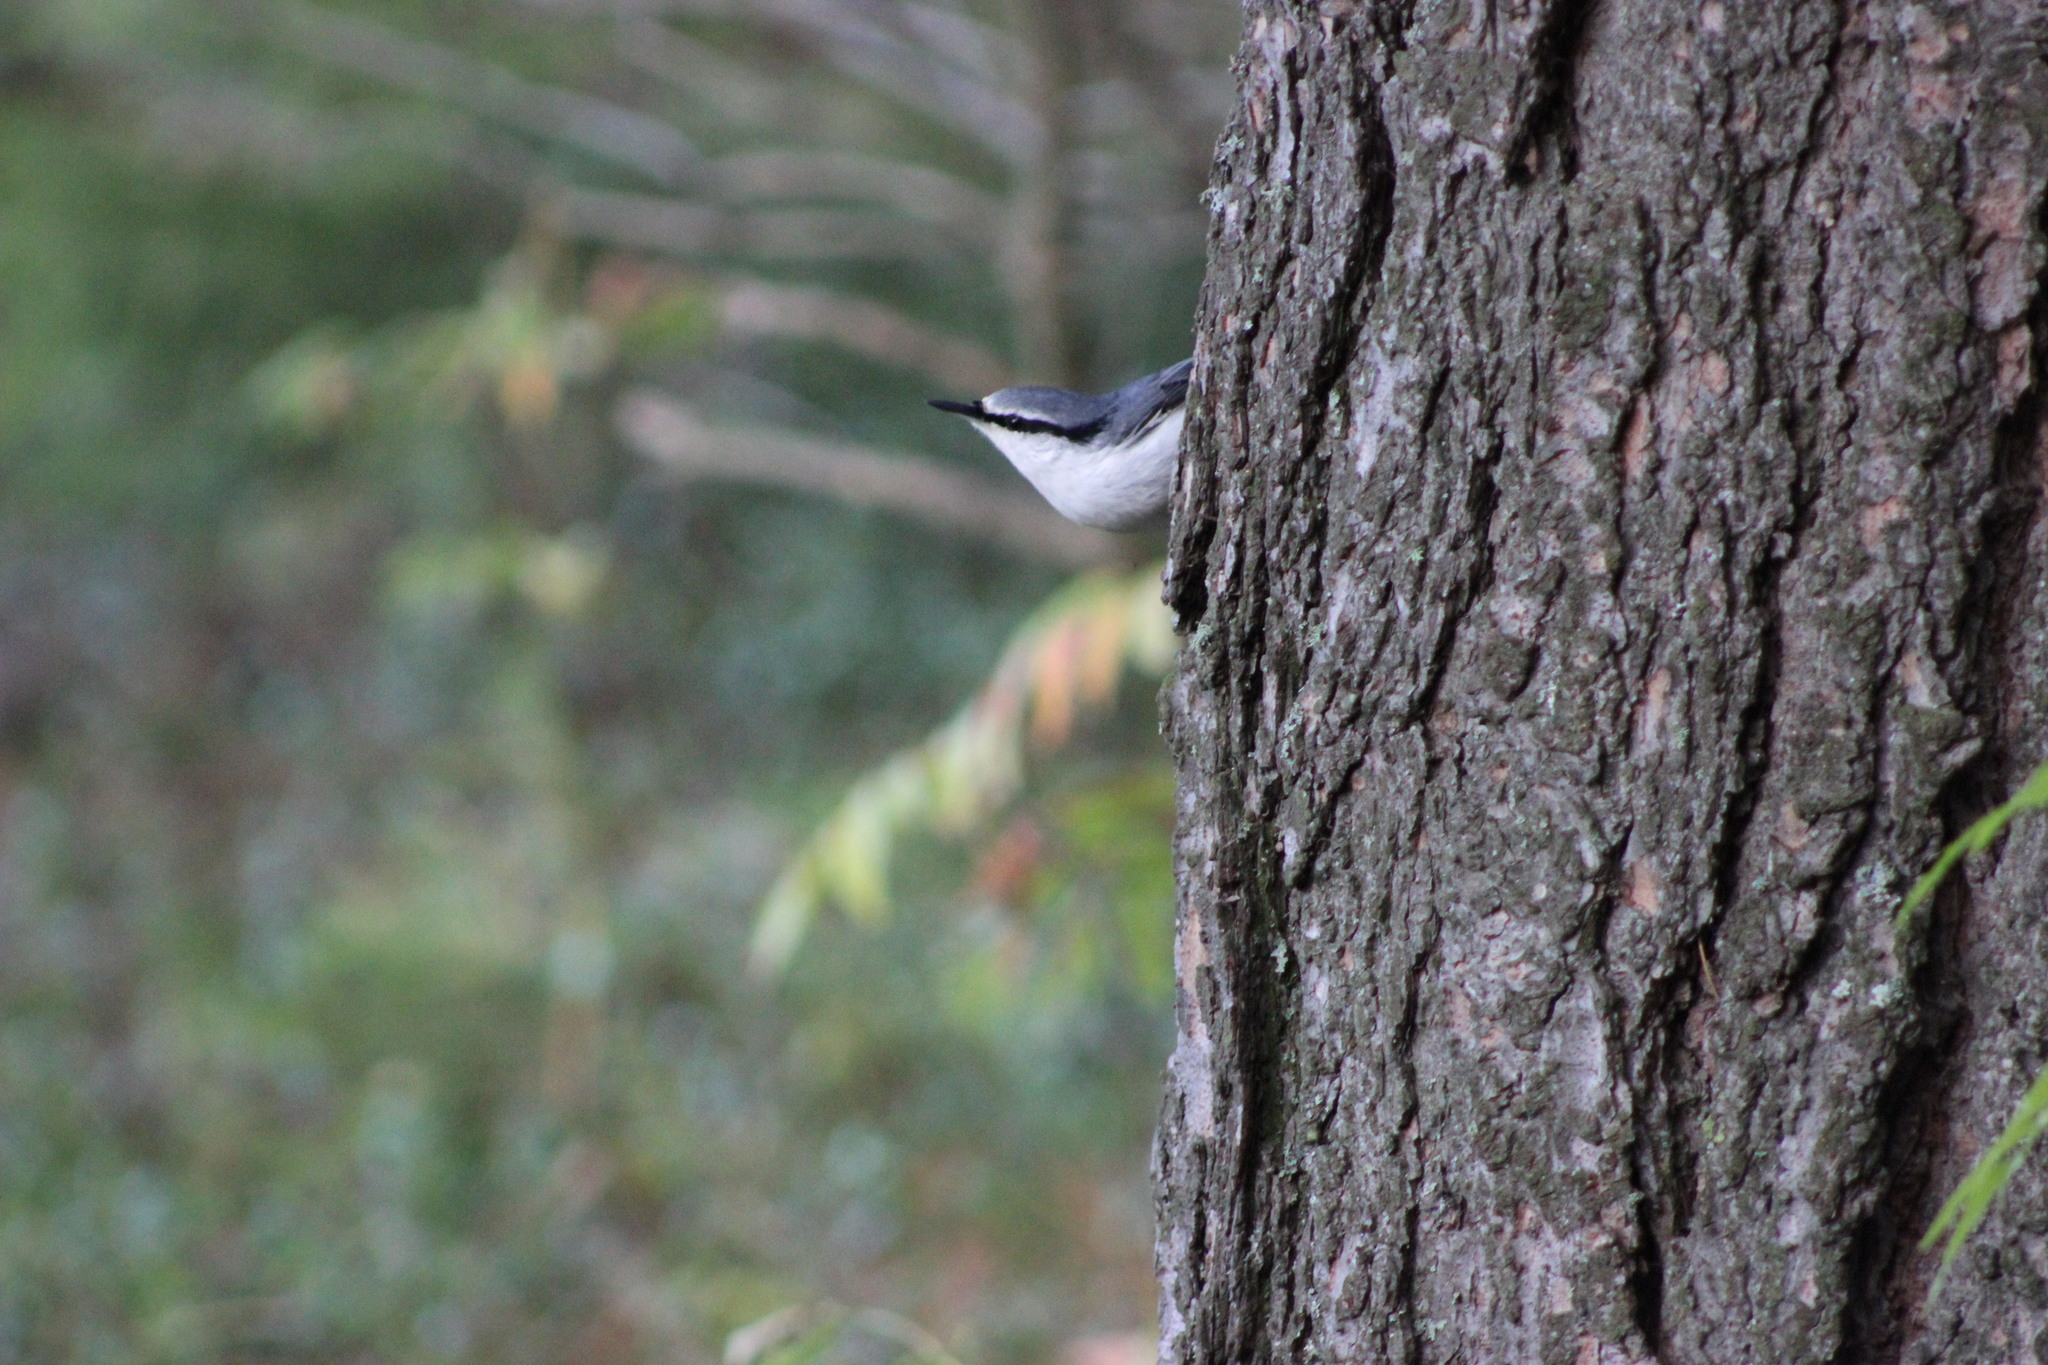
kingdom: Animalia
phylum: Chordata
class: Aves
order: Passeriformes
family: Sittidae
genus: Sitta
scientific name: Sitta europaea
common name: Eurasian nuthatch
